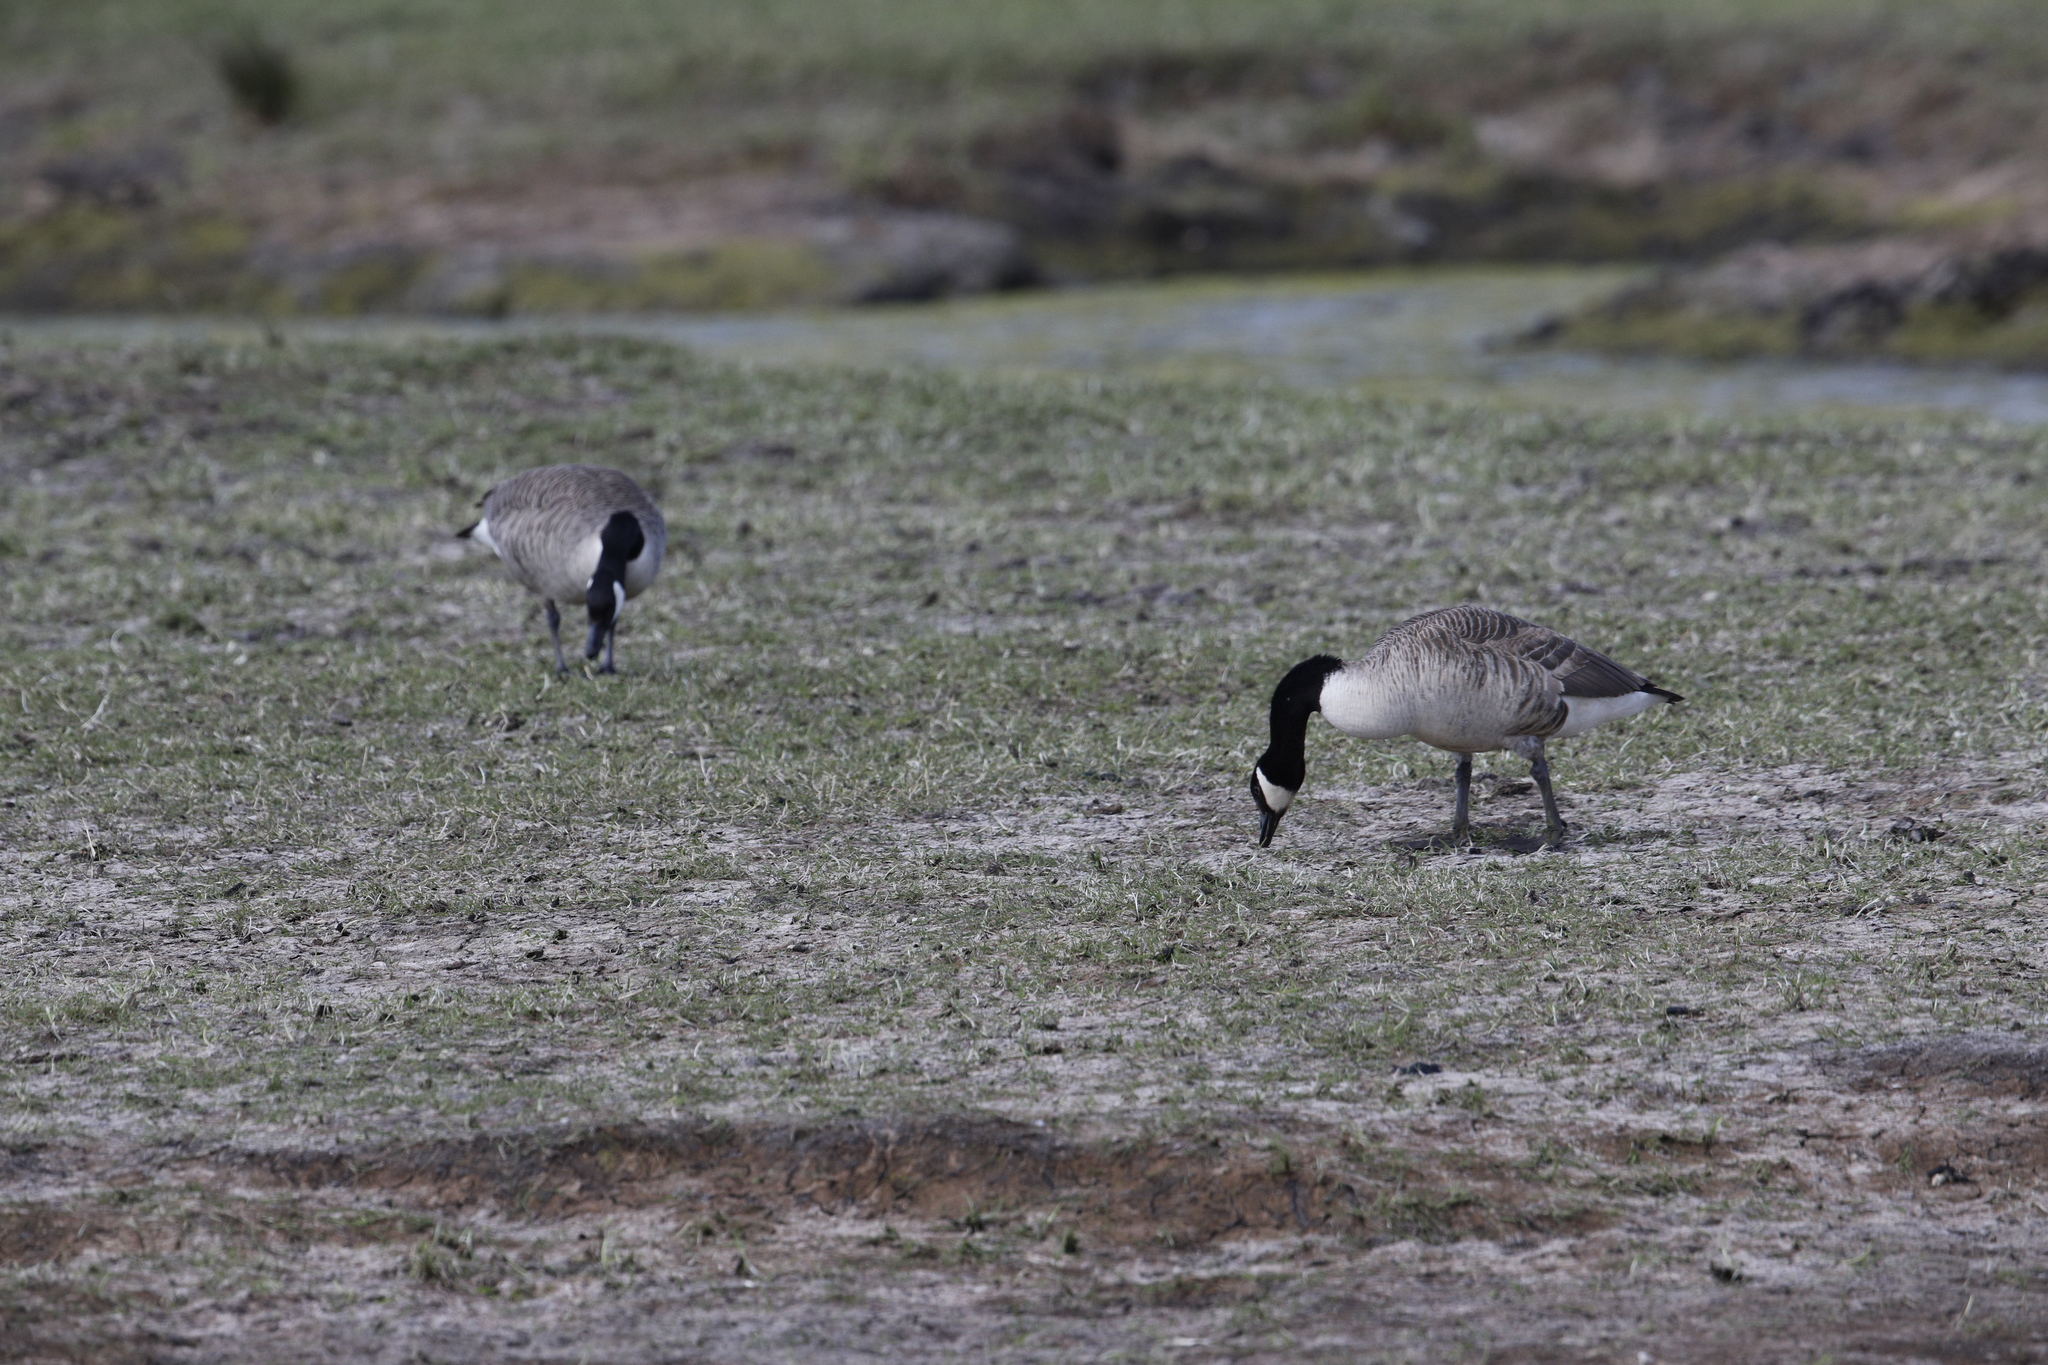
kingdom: Animalia
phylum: Chordata
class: Aves
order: Anseriformes
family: Anatidae
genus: Branta
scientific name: Branta canadensis
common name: Canada goose
